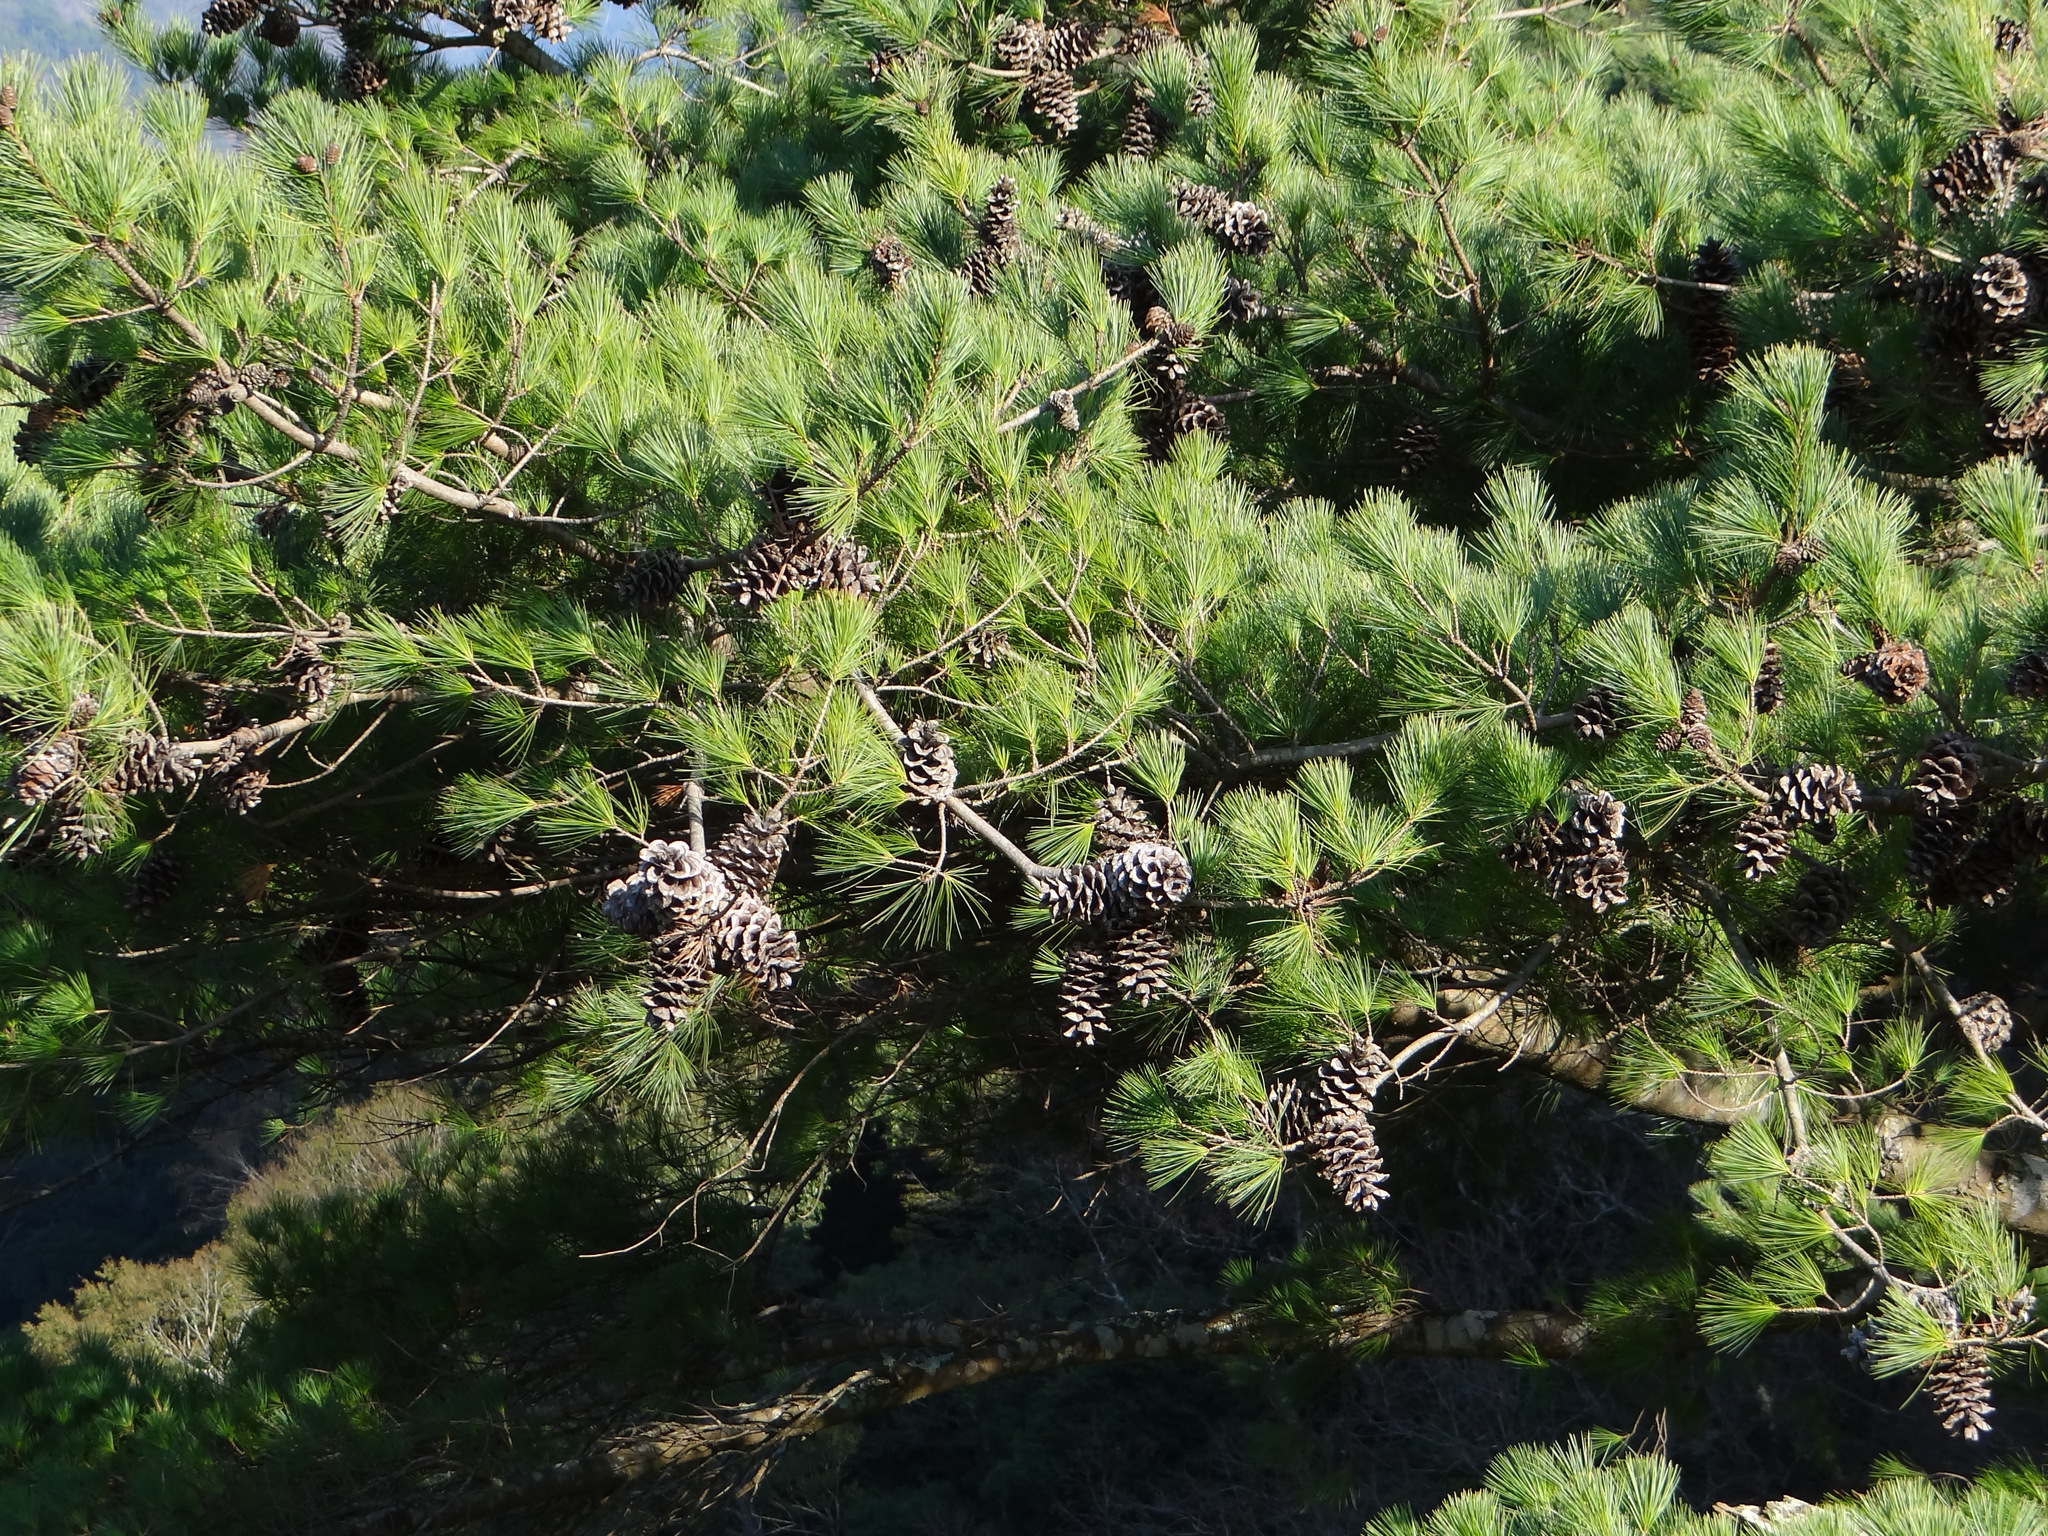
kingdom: Plantae
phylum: Tracheophyta
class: Pinopsida
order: Pinales
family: Pinaceae
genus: Pinus
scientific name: Pinus morrisonicola
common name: Taiwan white pine
